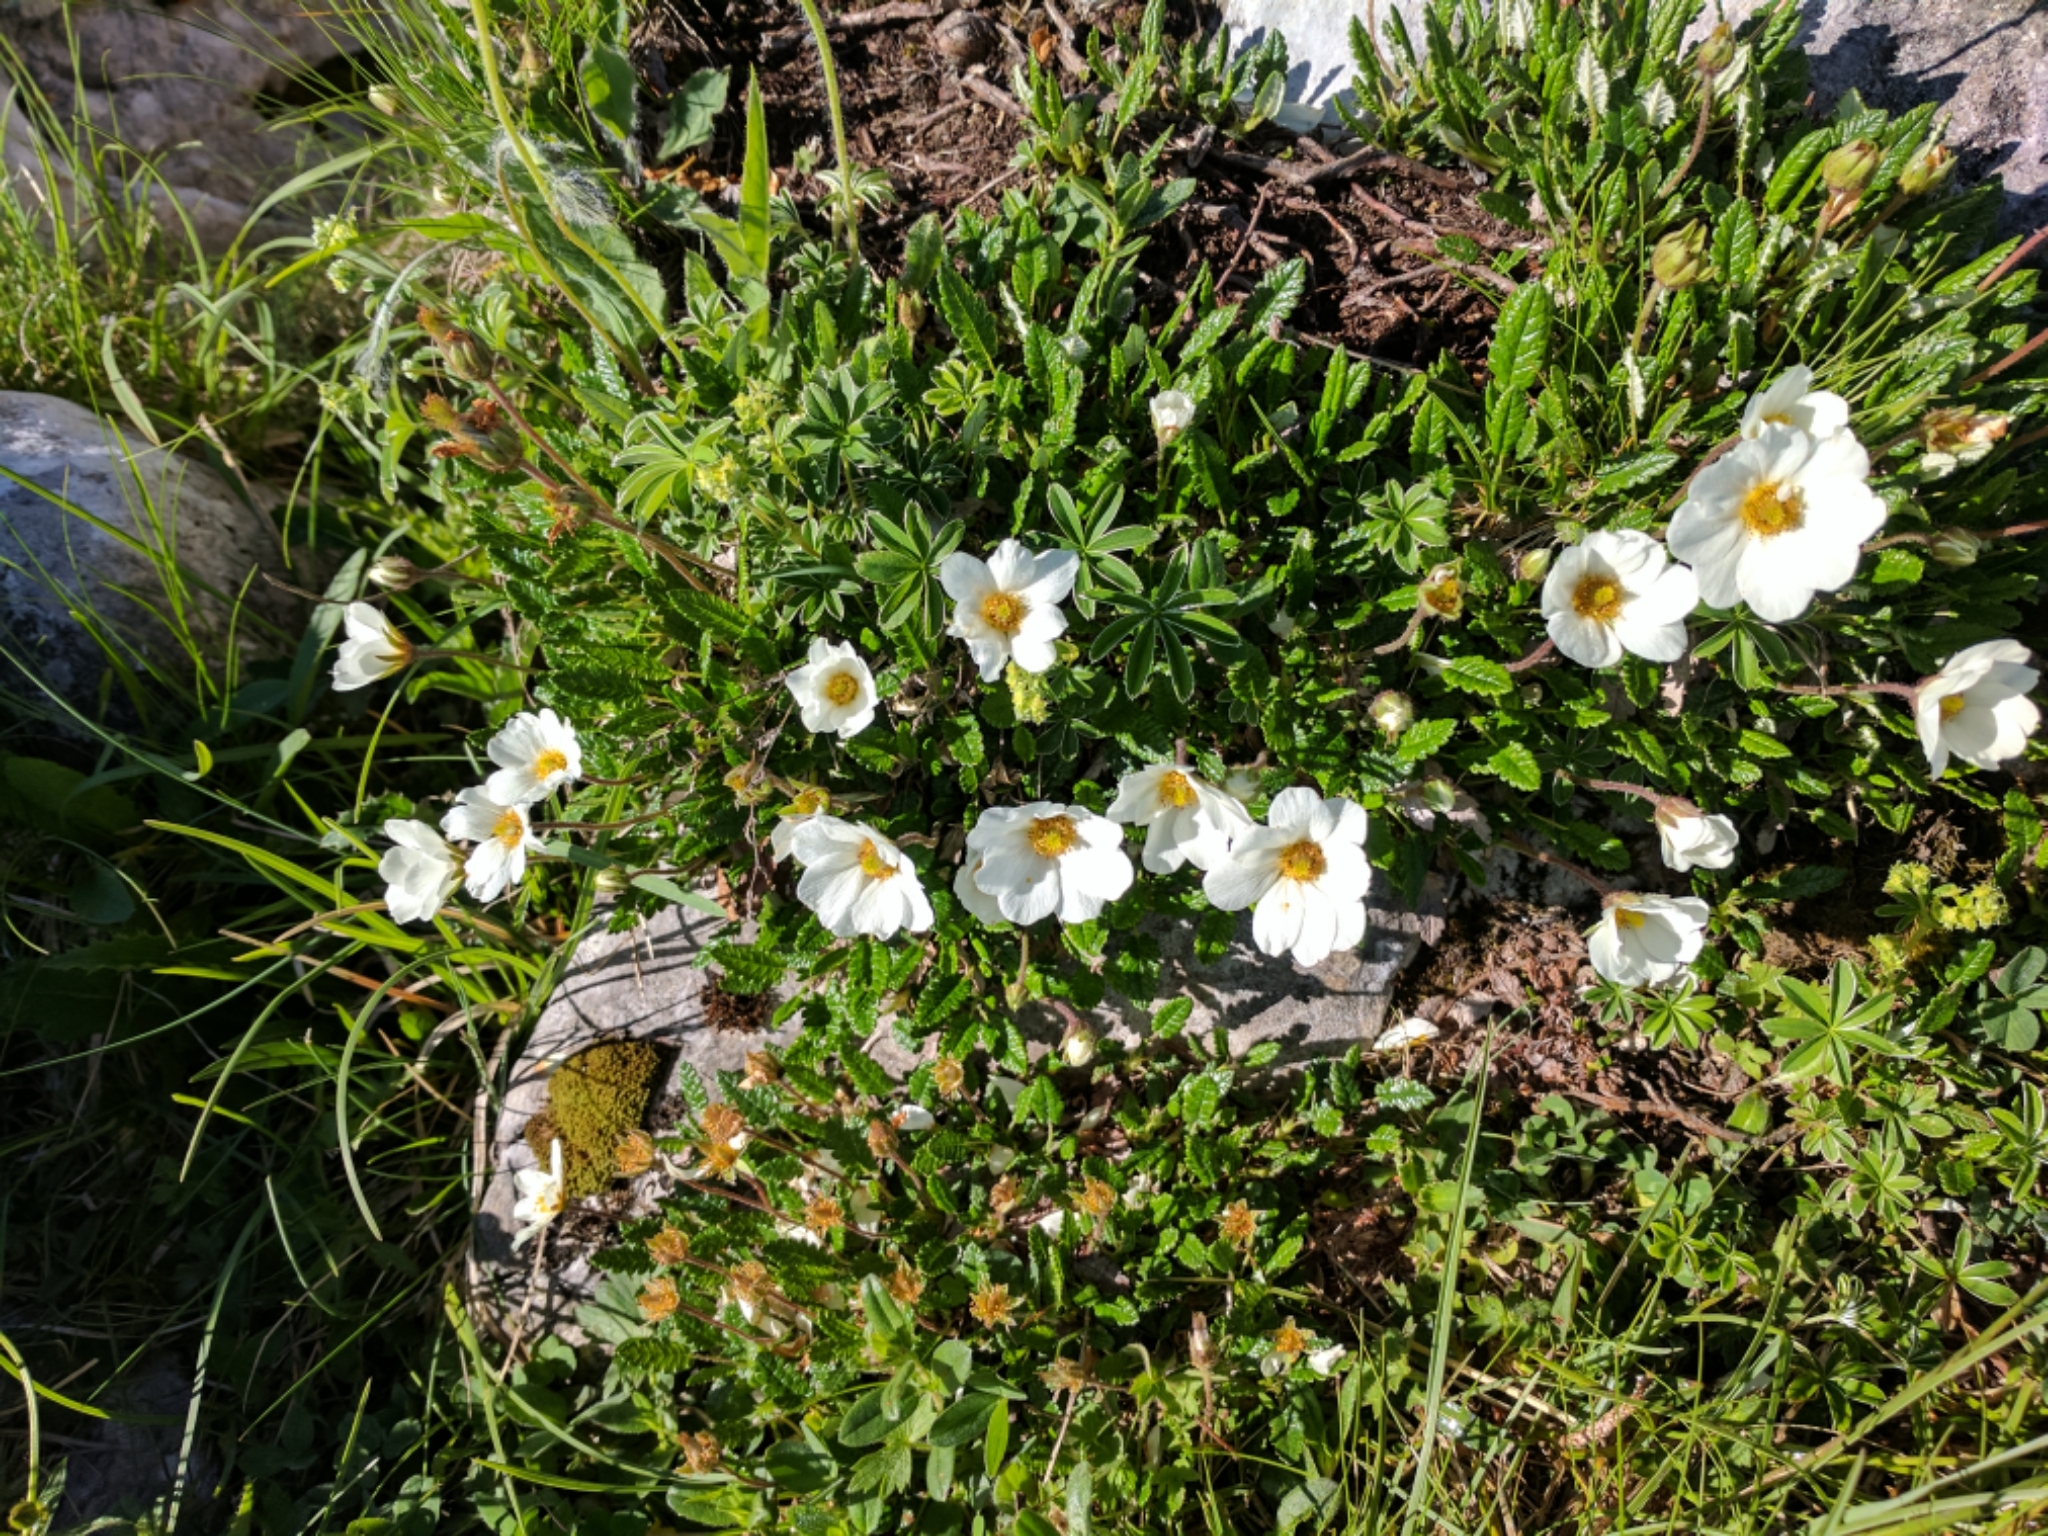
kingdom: Plantae
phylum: Tracheophyta
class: Magnoliopsida
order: Rosales
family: Rosaceae
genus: Dryas
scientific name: Dryas octopetala
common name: Eight-petal mountain-avens
